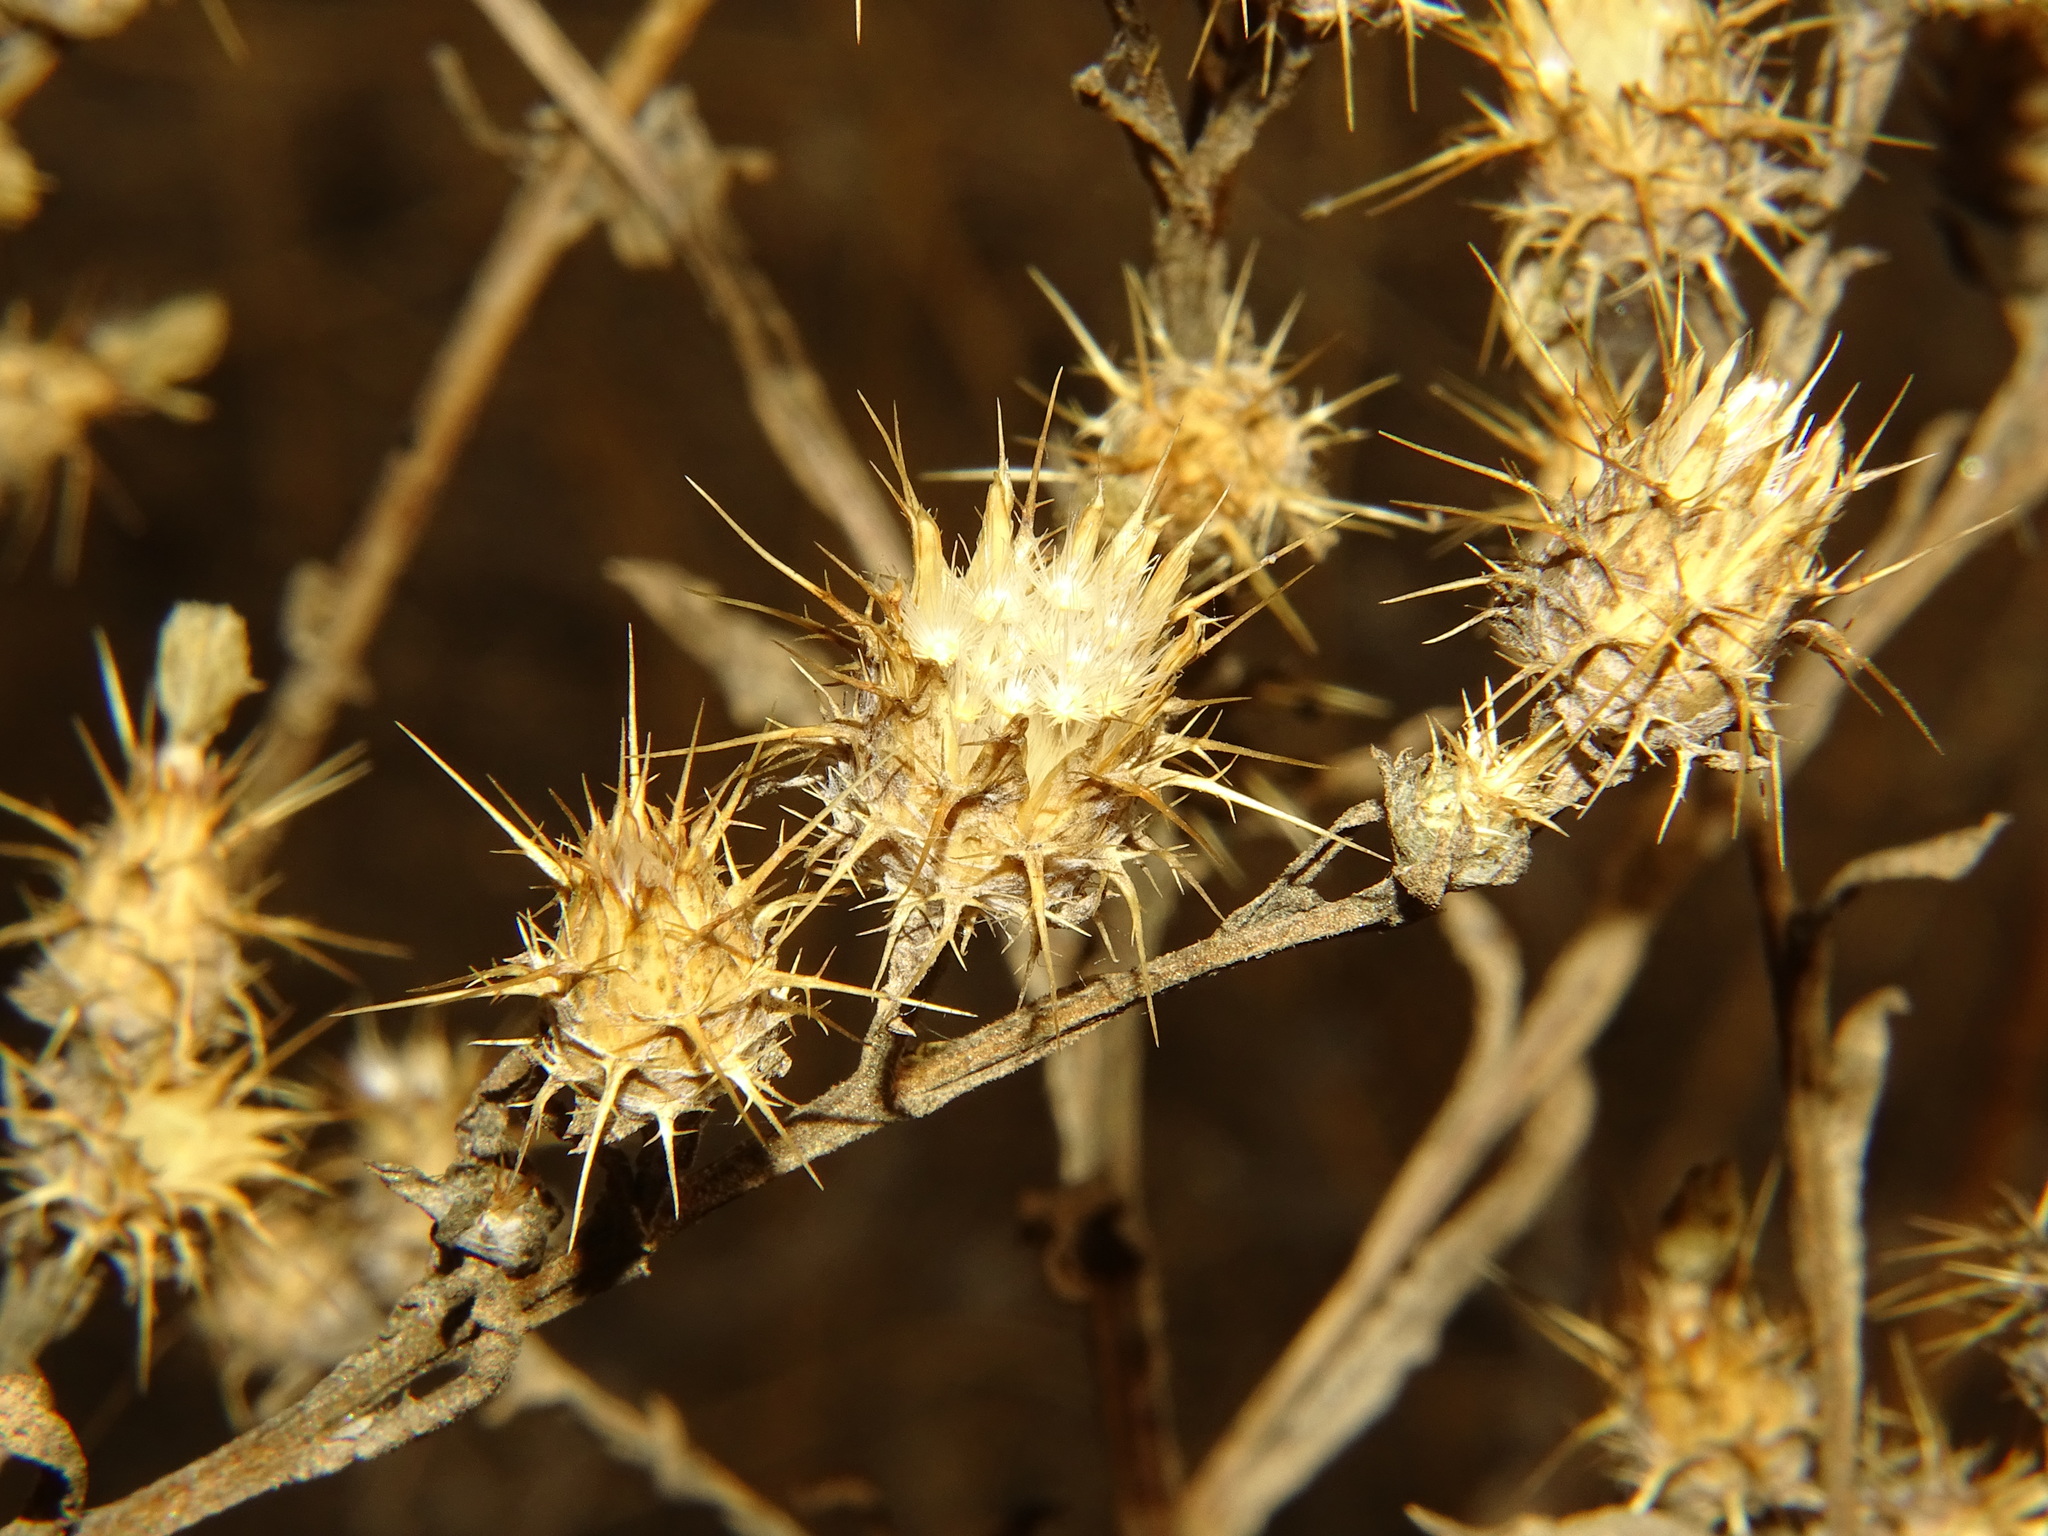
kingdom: Plantae
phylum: Tracheophyta
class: Magnoliopsida
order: Asterales
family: Asteraceae
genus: Centaurea
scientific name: Centaurea melitensis
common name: Maltese star-thistle
